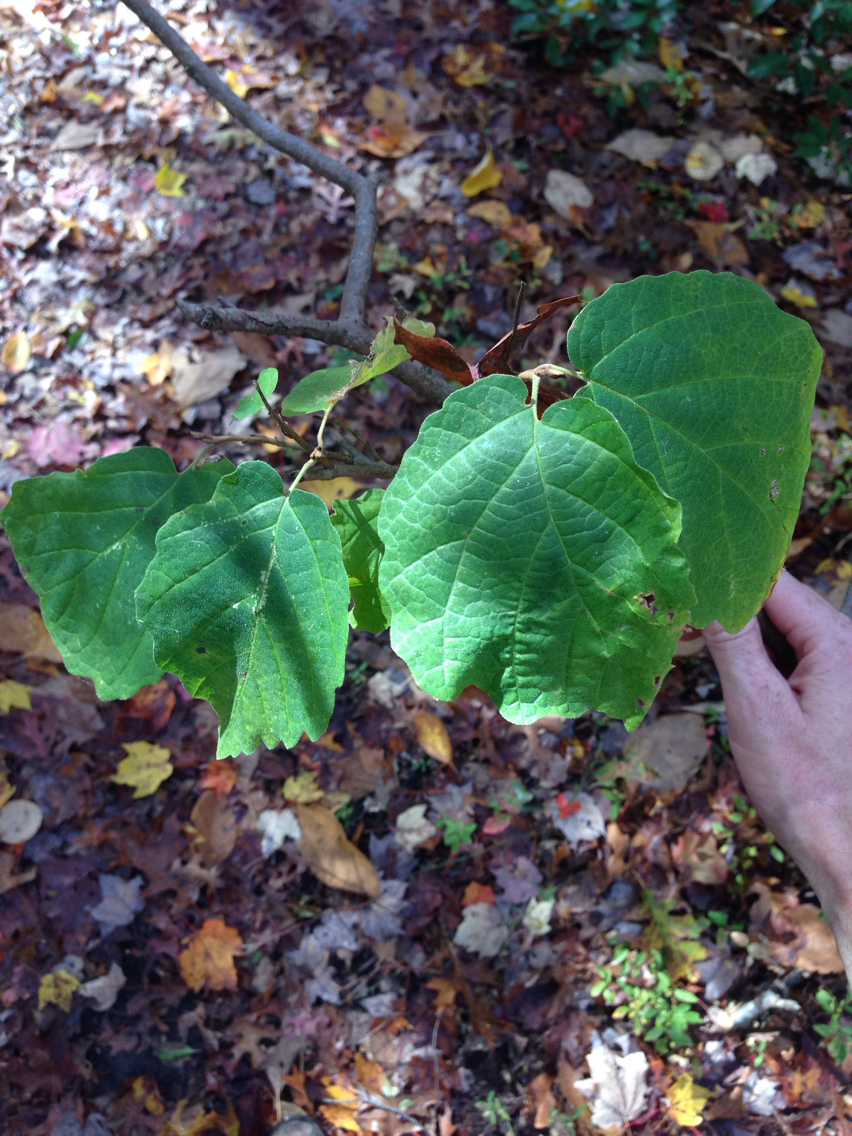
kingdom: Plantae
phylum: Tracheophyta
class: Magnoliopsida
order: Saxifragales
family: Hamamelidaceae
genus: Hamamelis
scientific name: Hamamelis virginiana
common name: Witch-hazel
